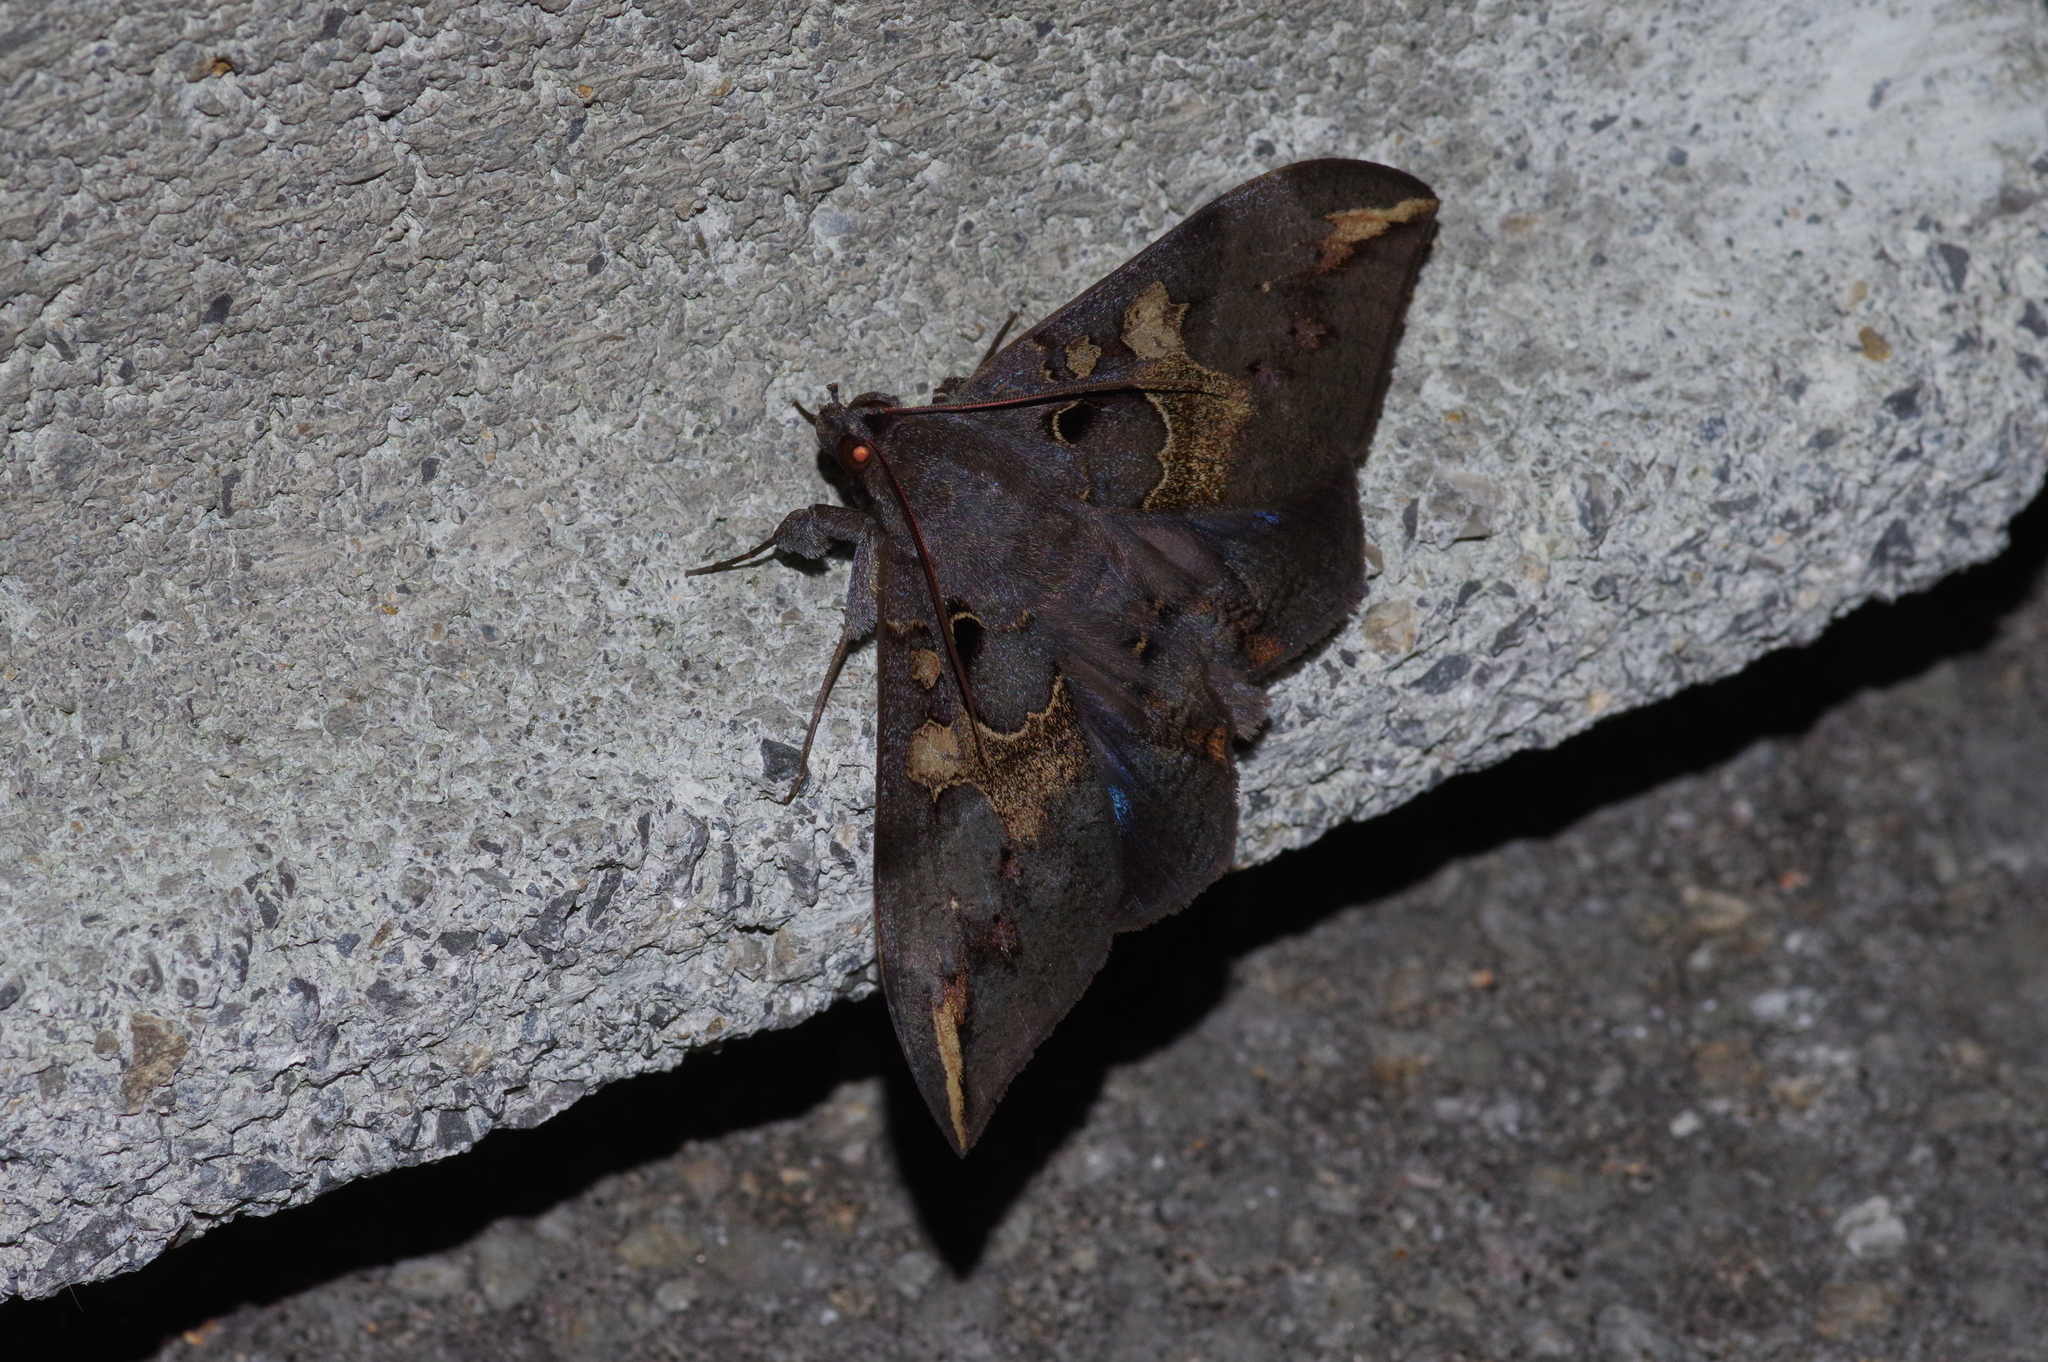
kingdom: Animalia
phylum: Arthropoda
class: Insecta
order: Lepidoptera
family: Erebidae
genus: Ischyja
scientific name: Ischyja ferrifracta
